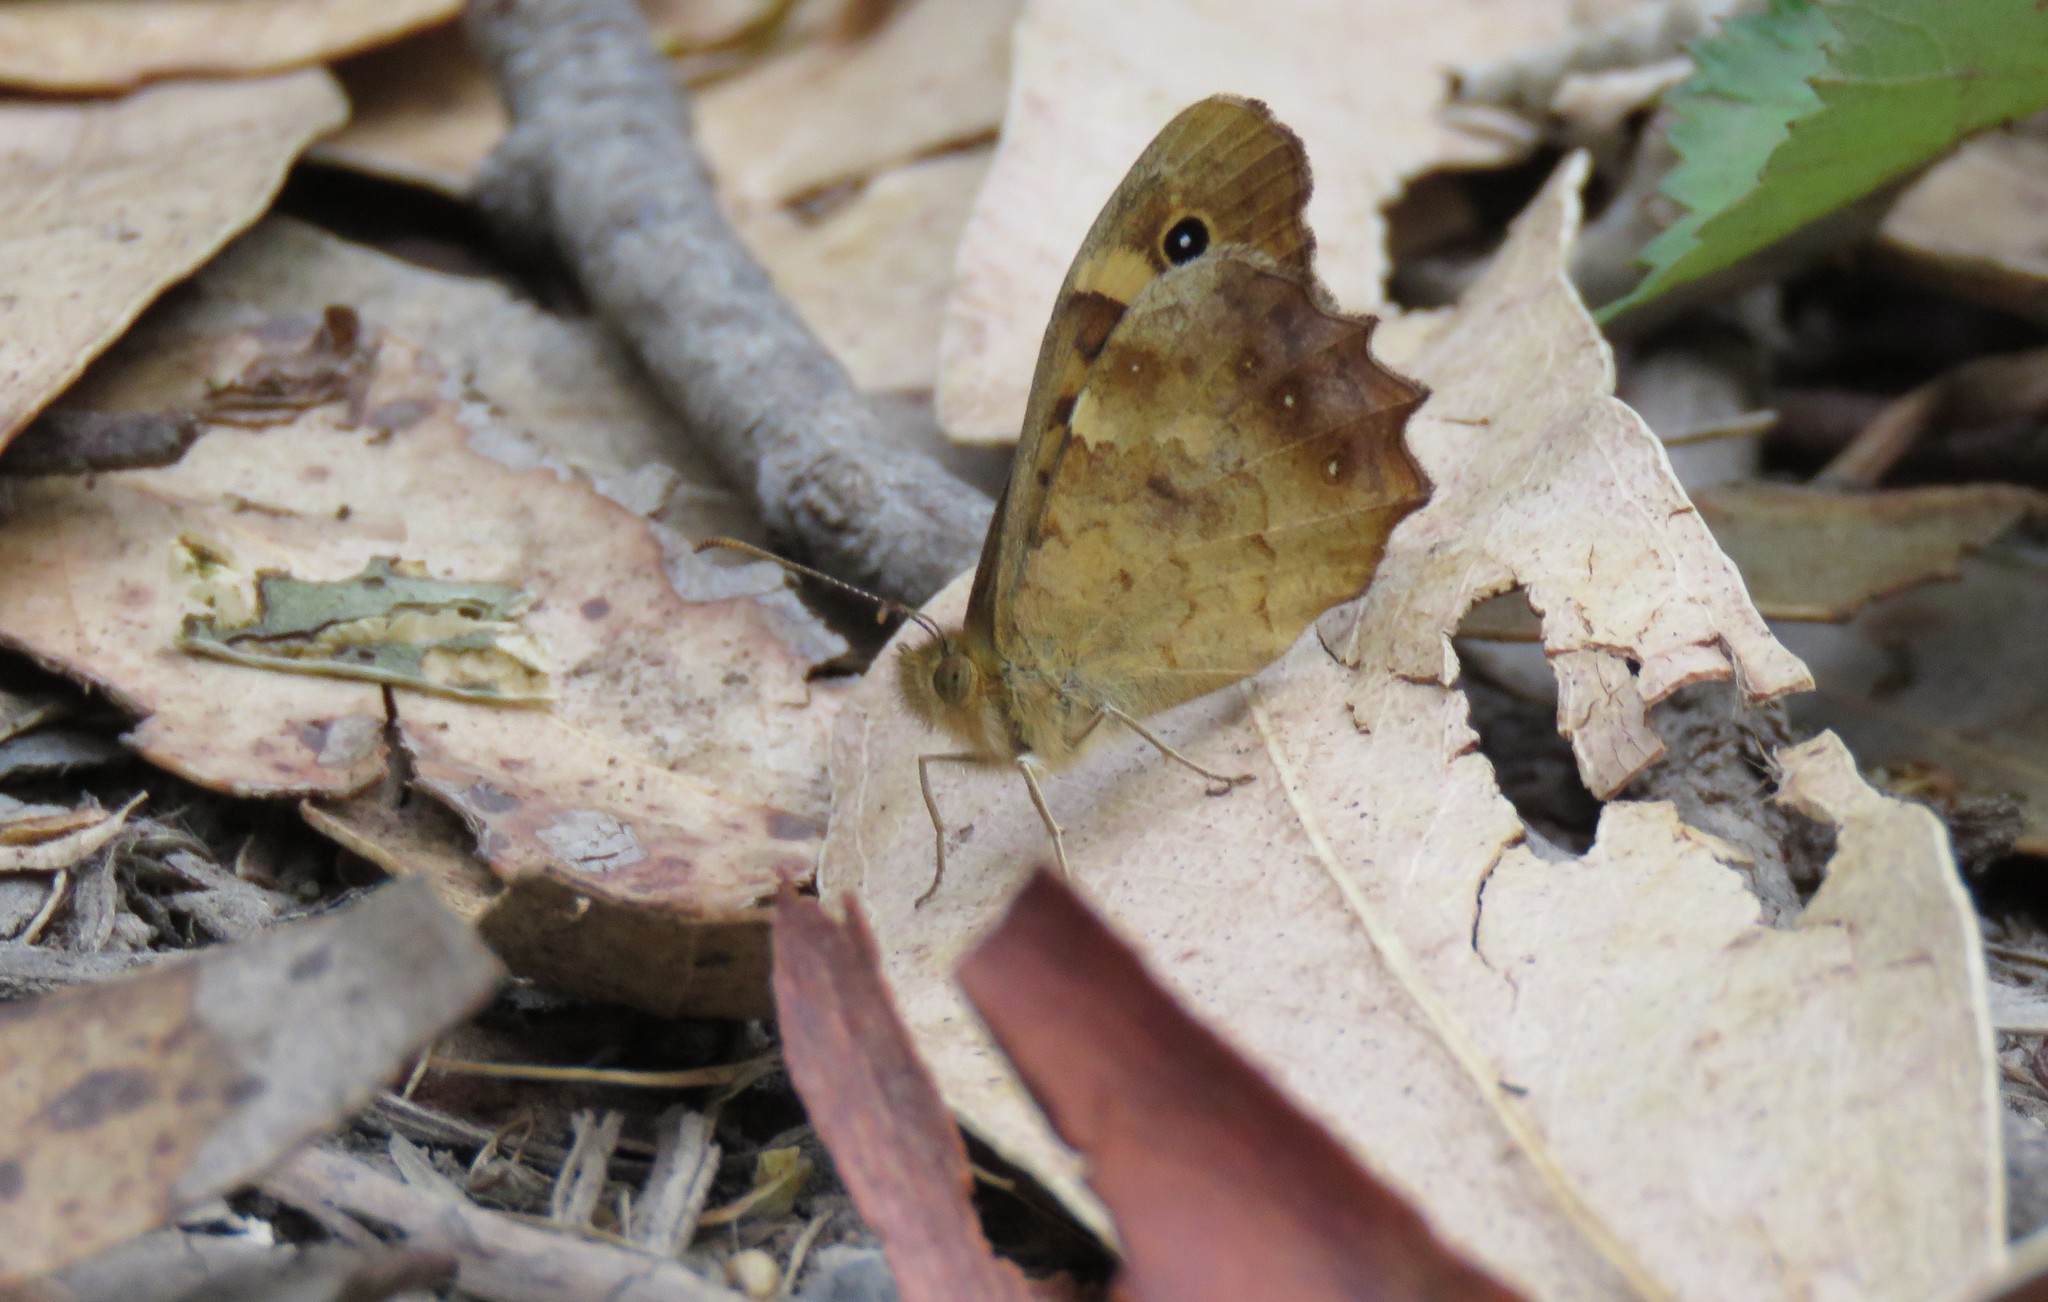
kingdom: Animalia
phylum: Arthropoda
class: Insecta
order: Lepidoptera
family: Nymphalidae
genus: Pararge
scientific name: Pararge aegeria
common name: Speckled wood
